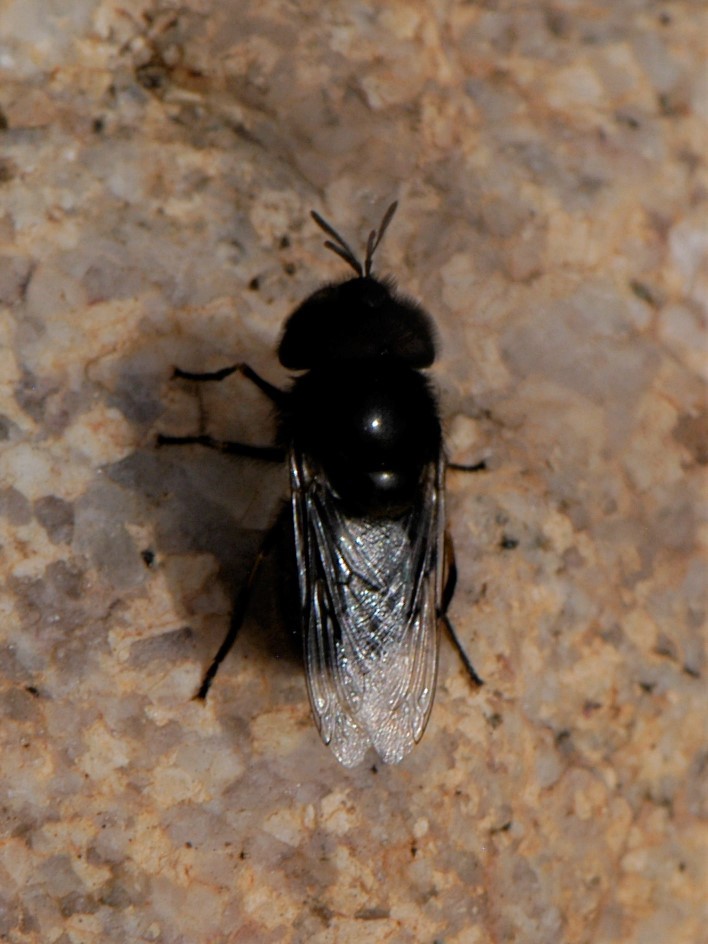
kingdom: Animalia
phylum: Arthropoda
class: Insecta
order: Diptera
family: Syrphidae
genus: Copestylum
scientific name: Copestylum
